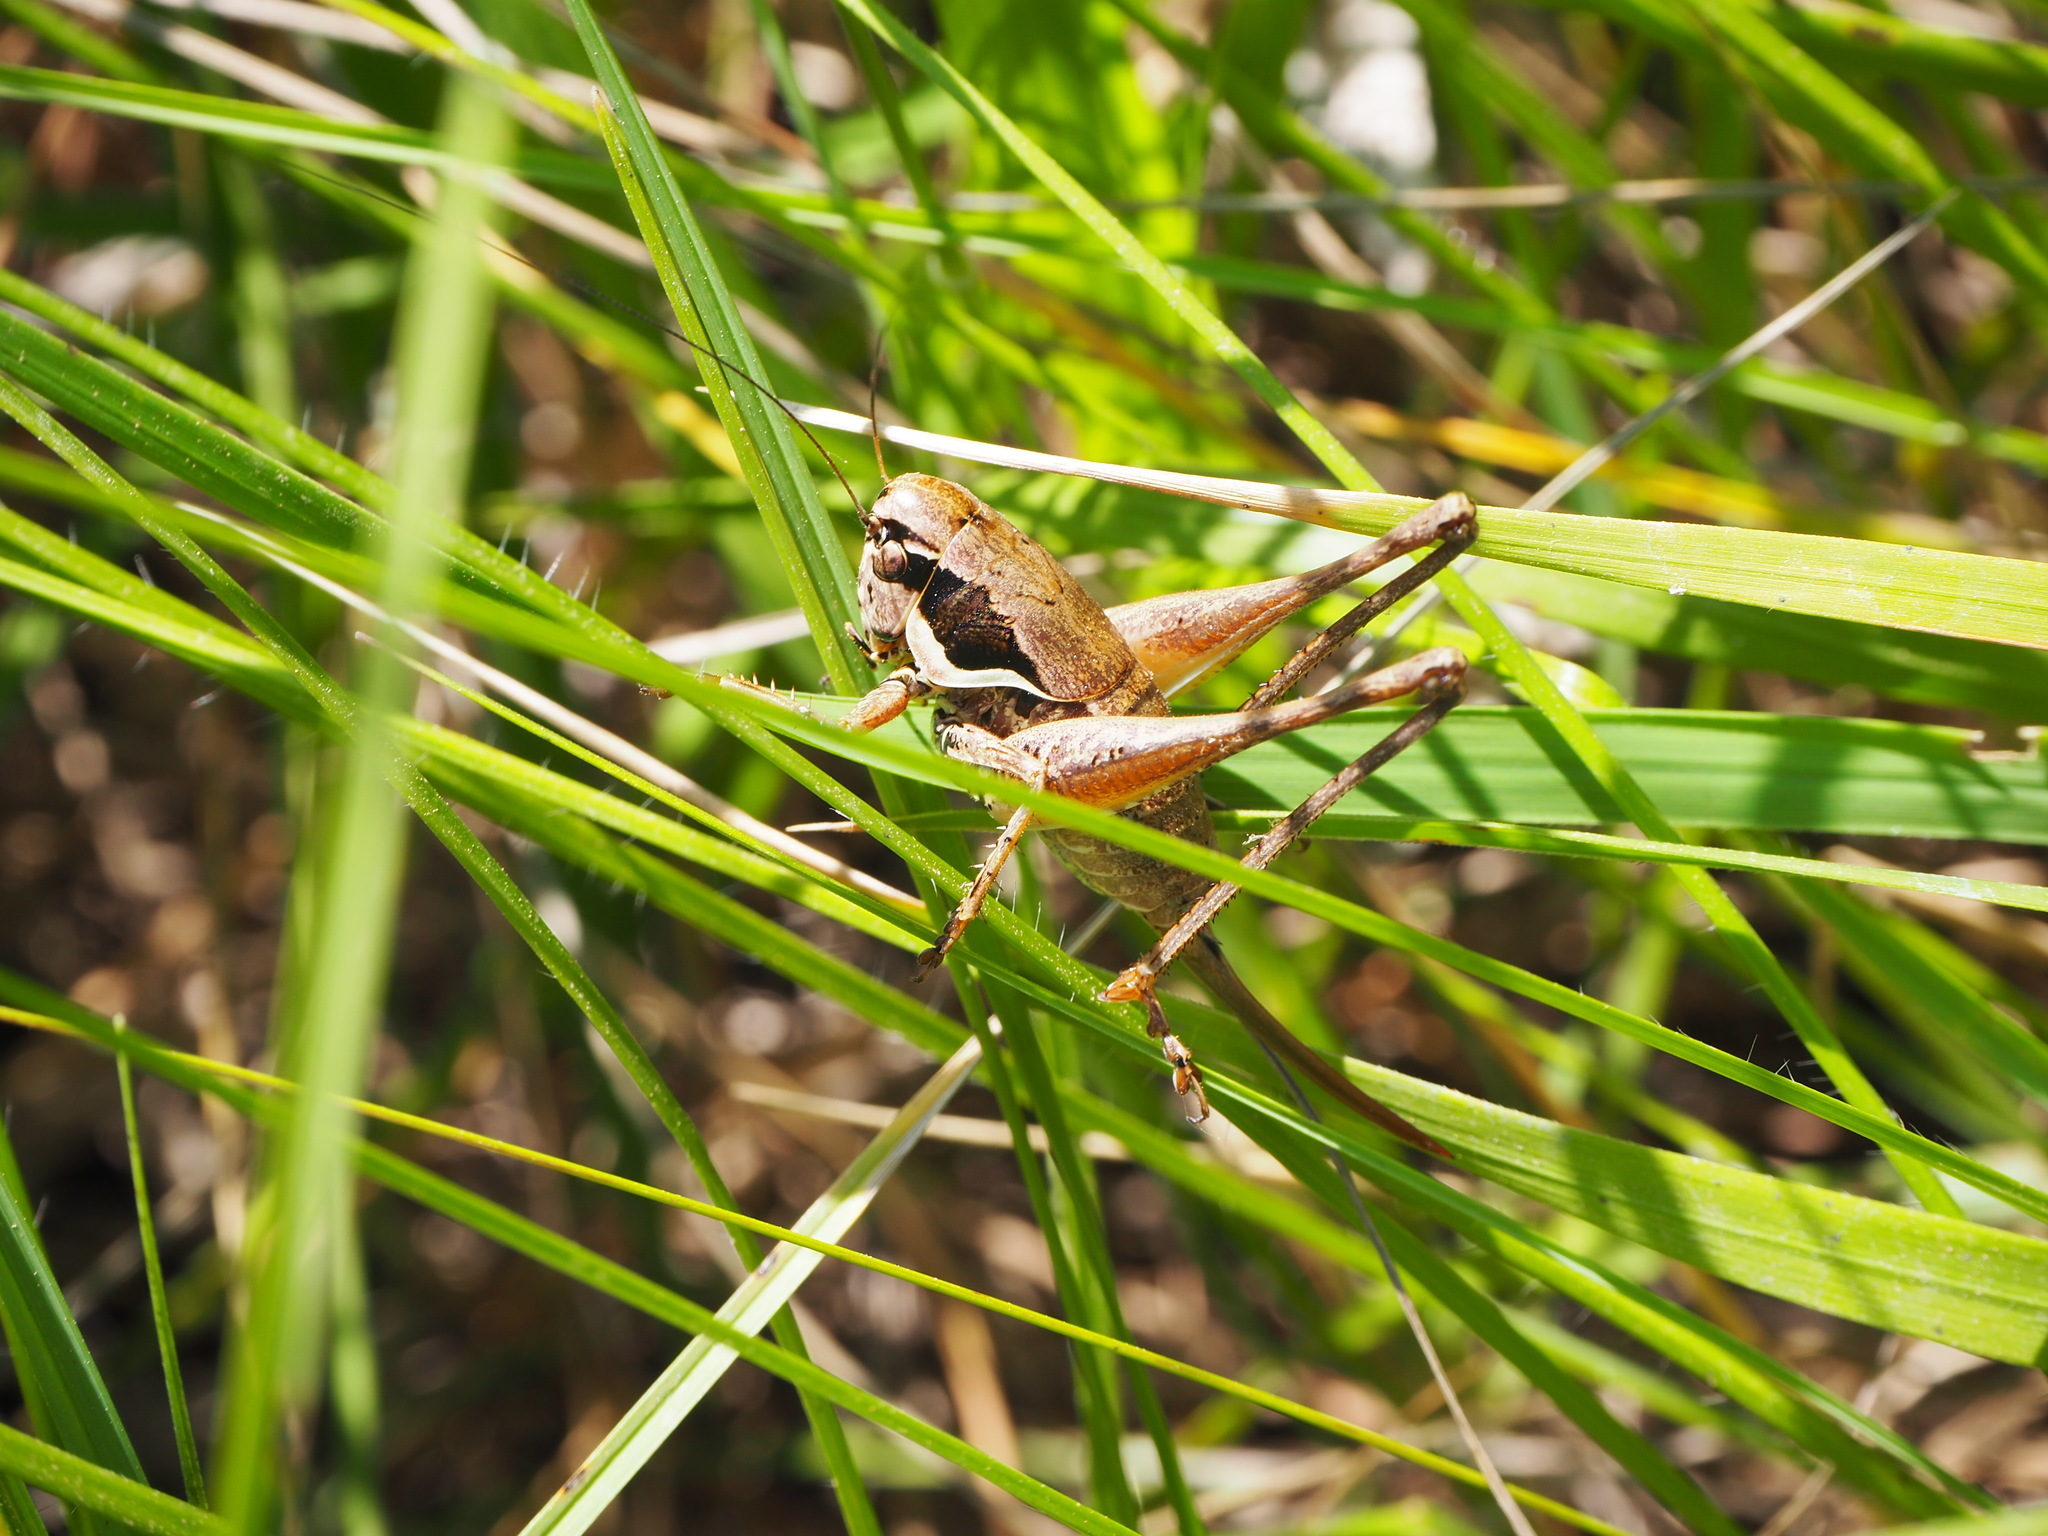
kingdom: Animalia
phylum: Arthropoda
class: Insecta
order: Orthoptera
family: Tettigoniidae
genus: Pholidoptera
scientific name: Pholidoptera femorata
